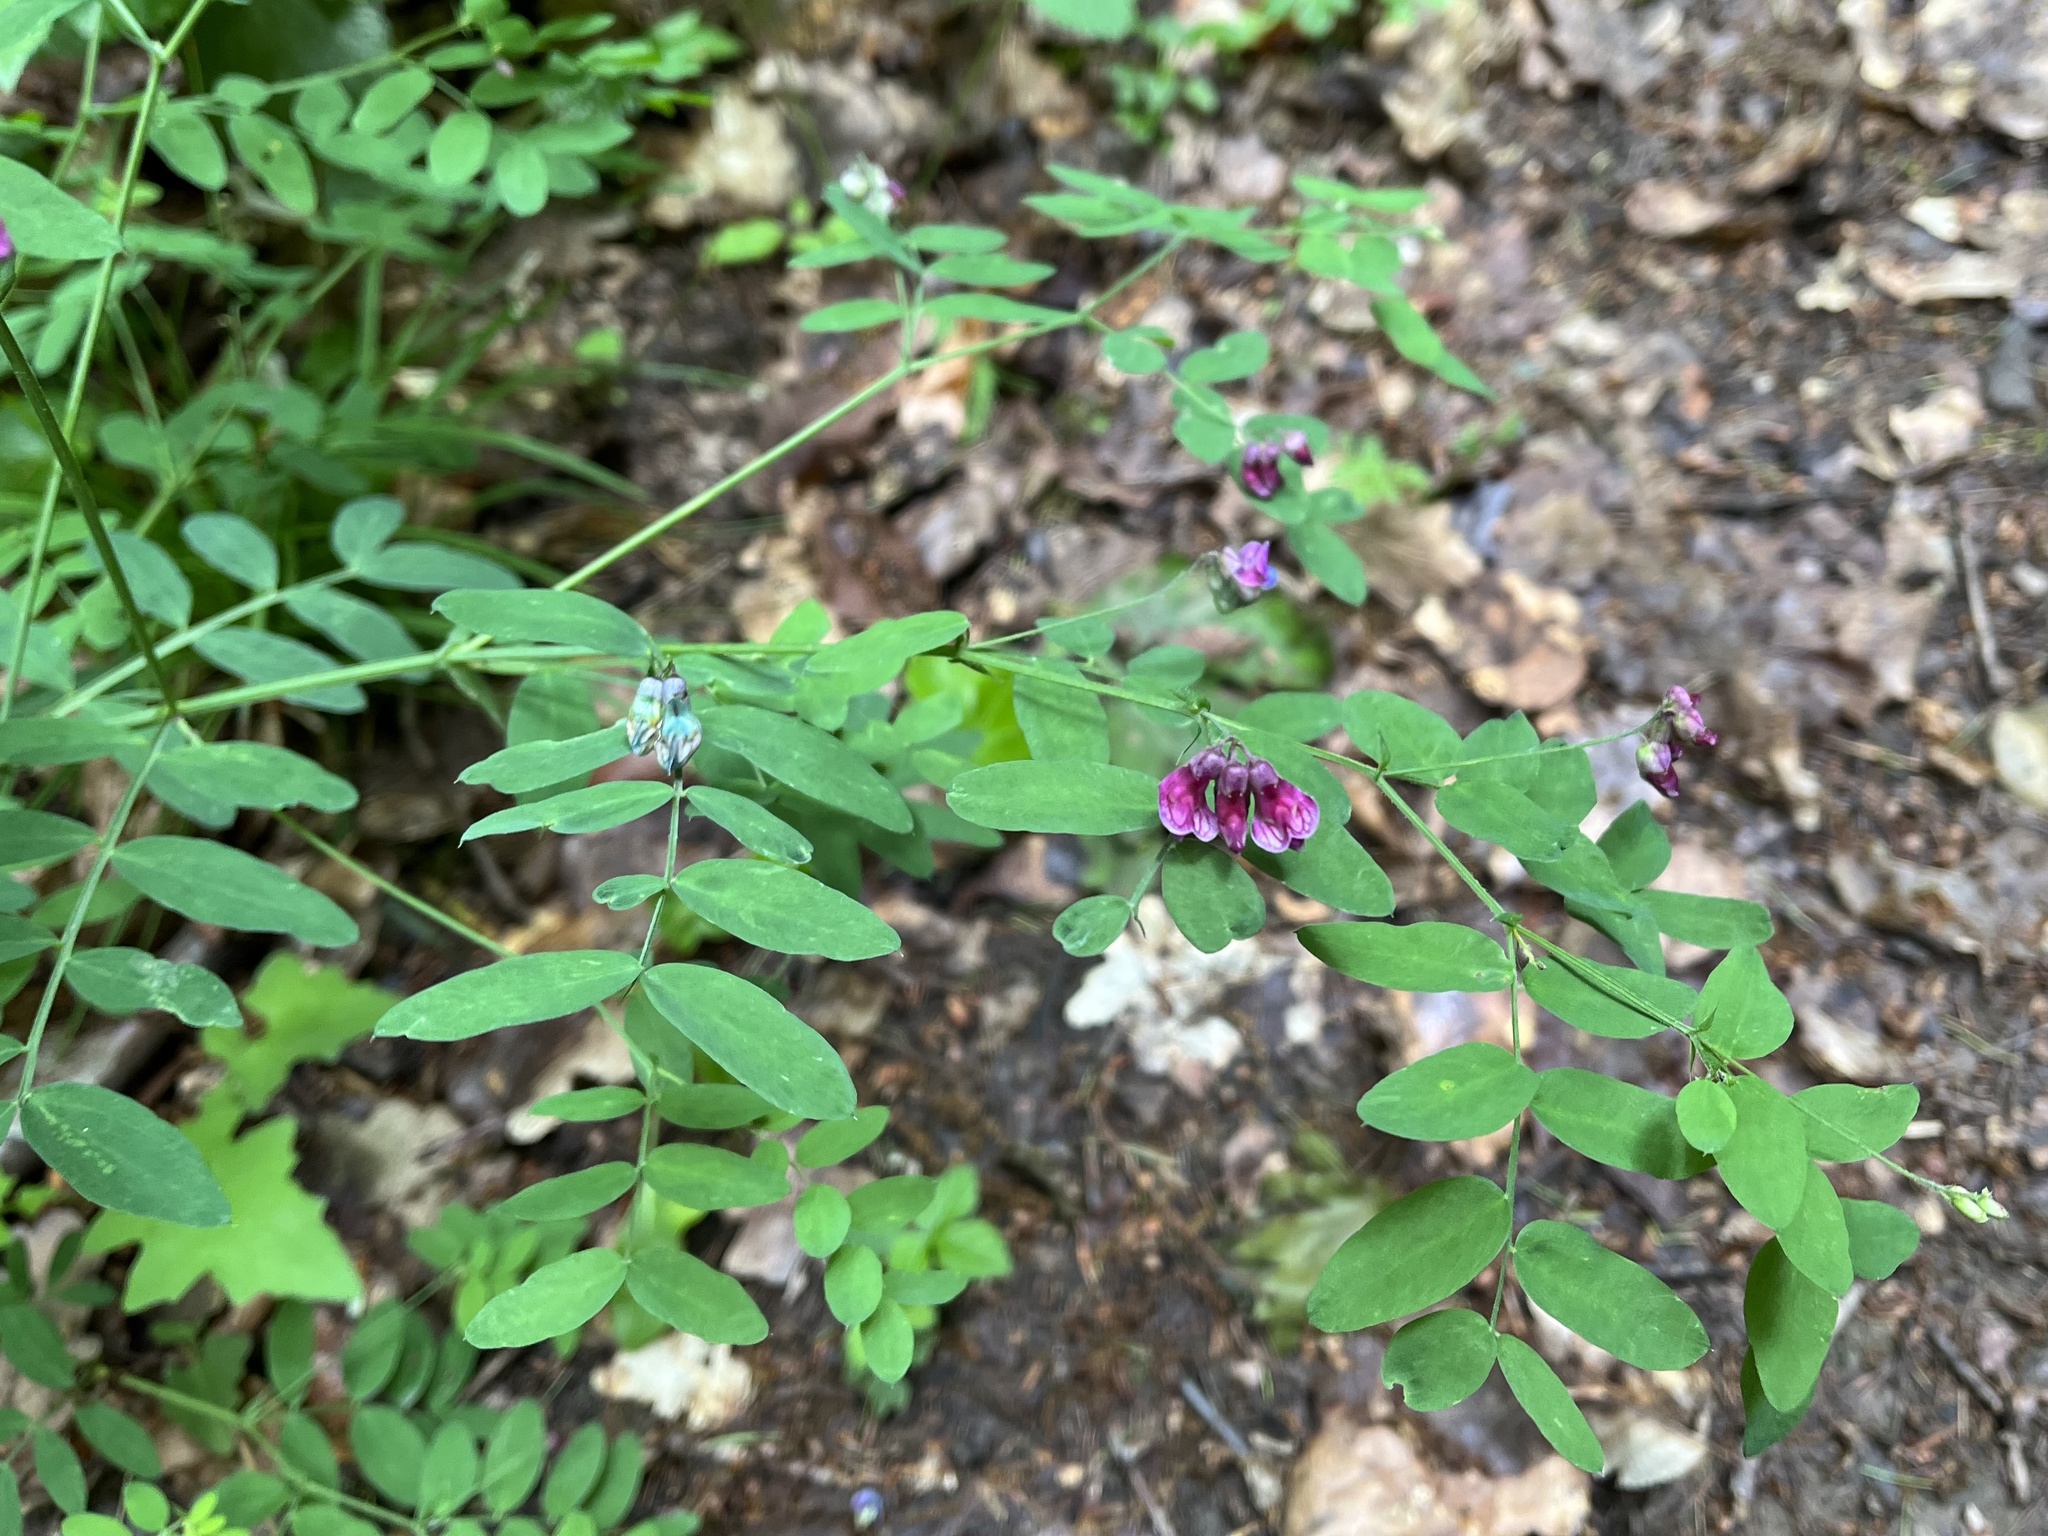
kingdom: Plantae
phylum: Tracheophyta
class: Magnoliopsida
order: Fabales
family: Fabaceae
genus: Lathyrus
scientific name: Lathyrus niger
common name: Black pea
